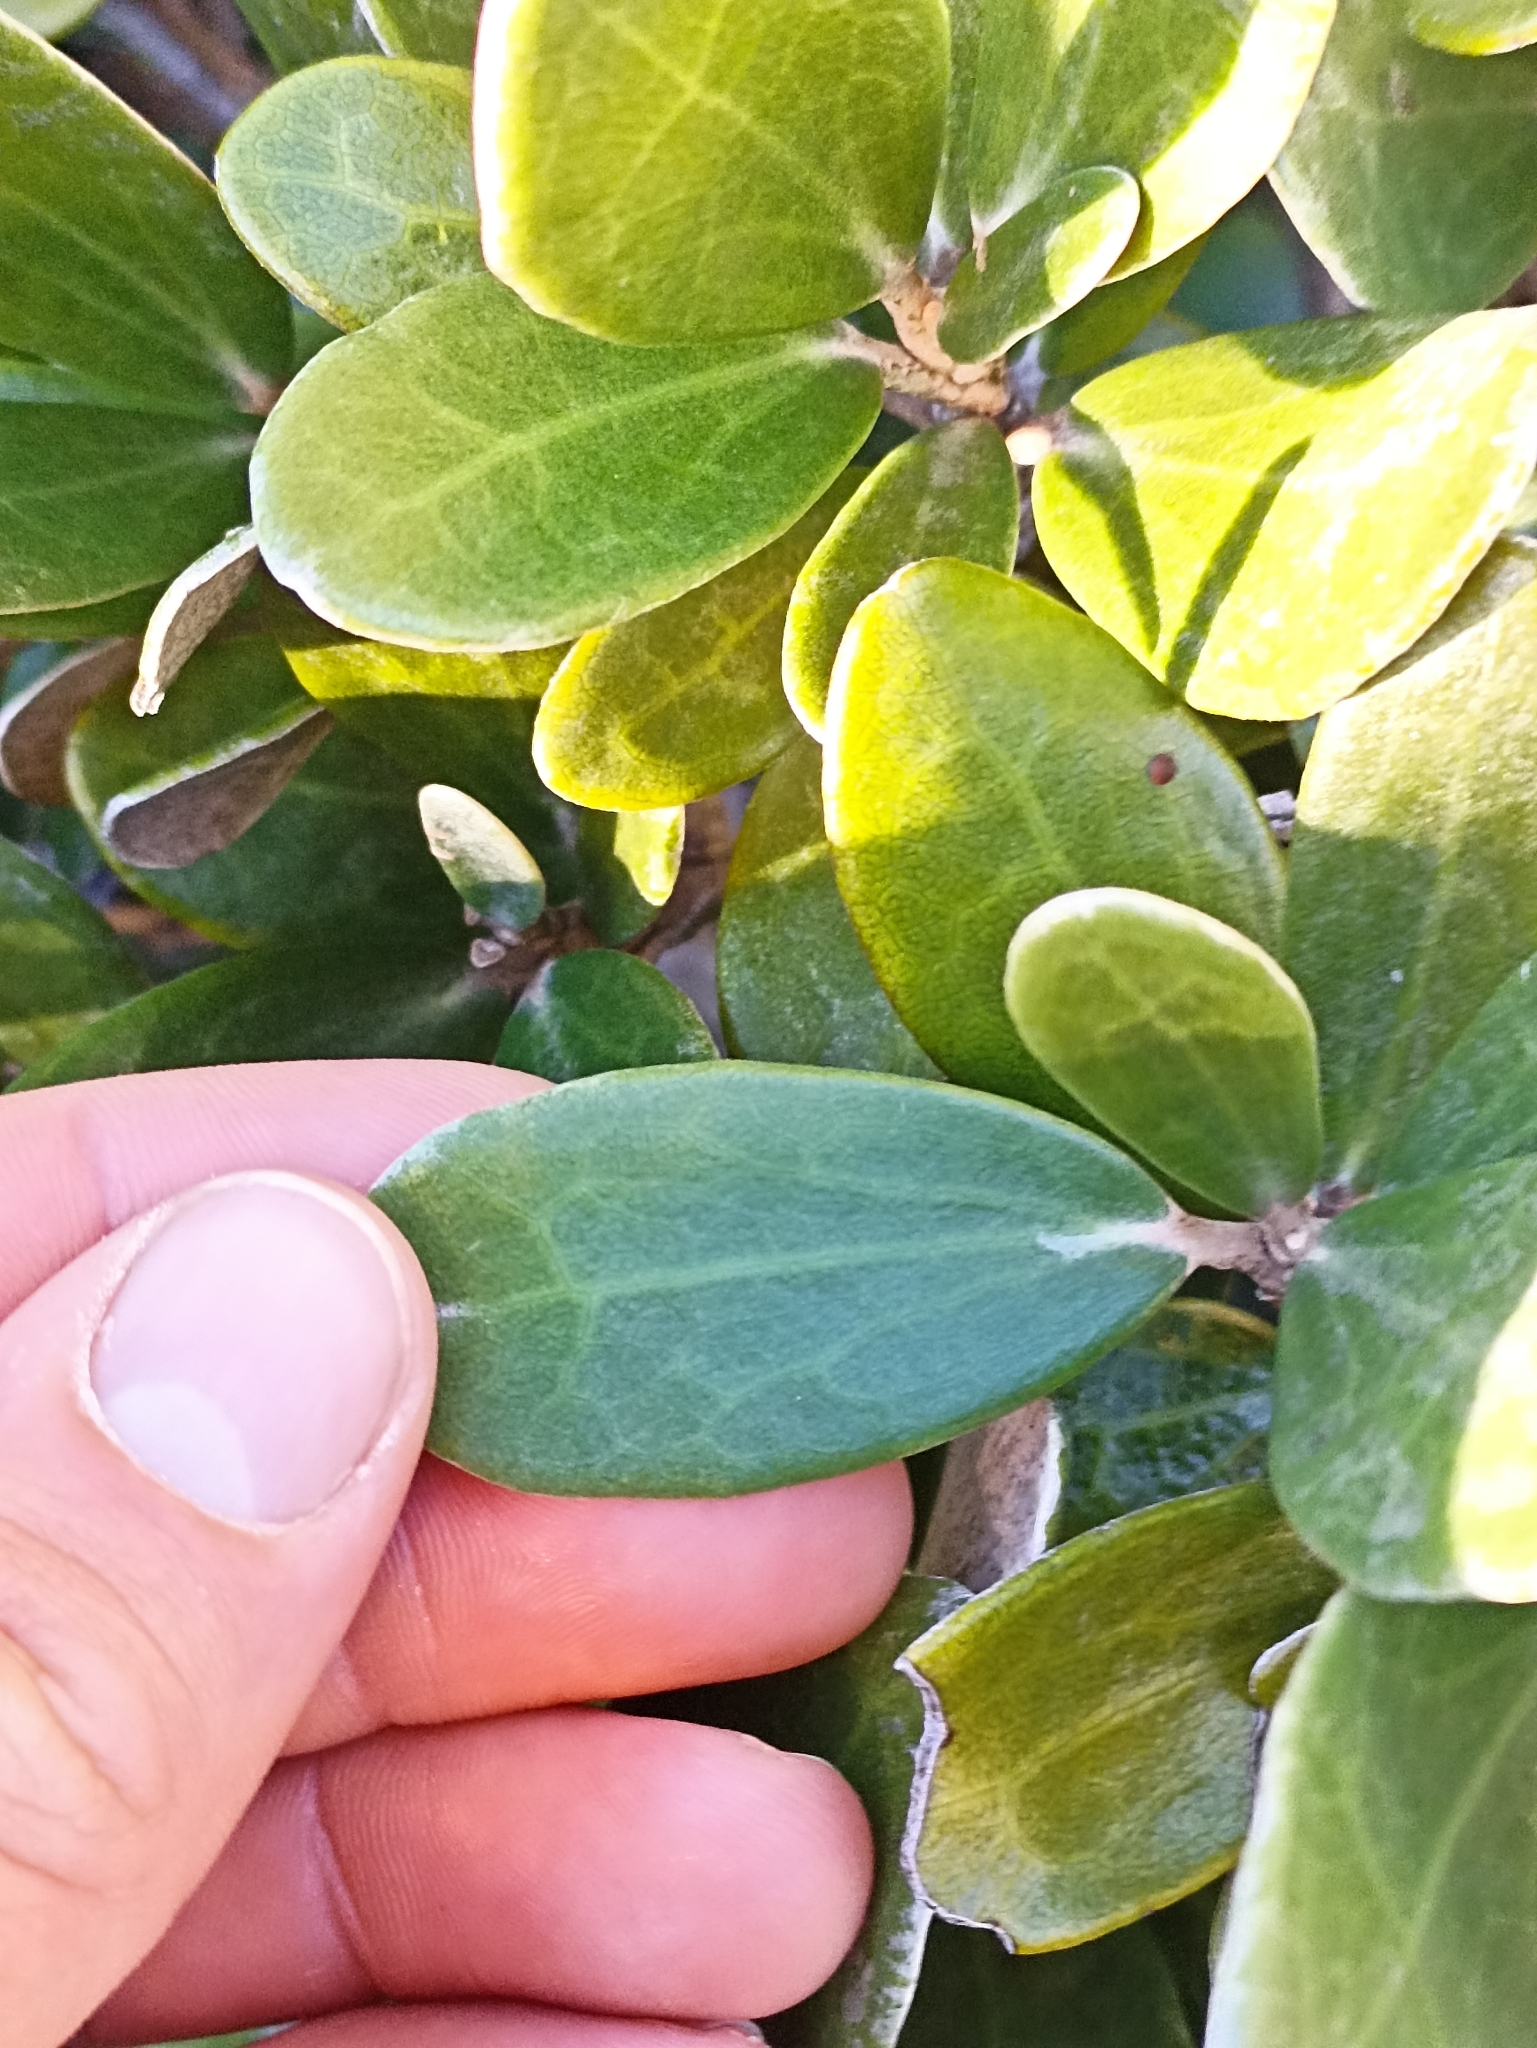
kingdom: Plantae
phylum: Tracheophyta
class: Magnoliopsida
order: Asterales
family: Asteraceae
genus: Brachyglottis
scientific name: Brachyglottis bidwillii
